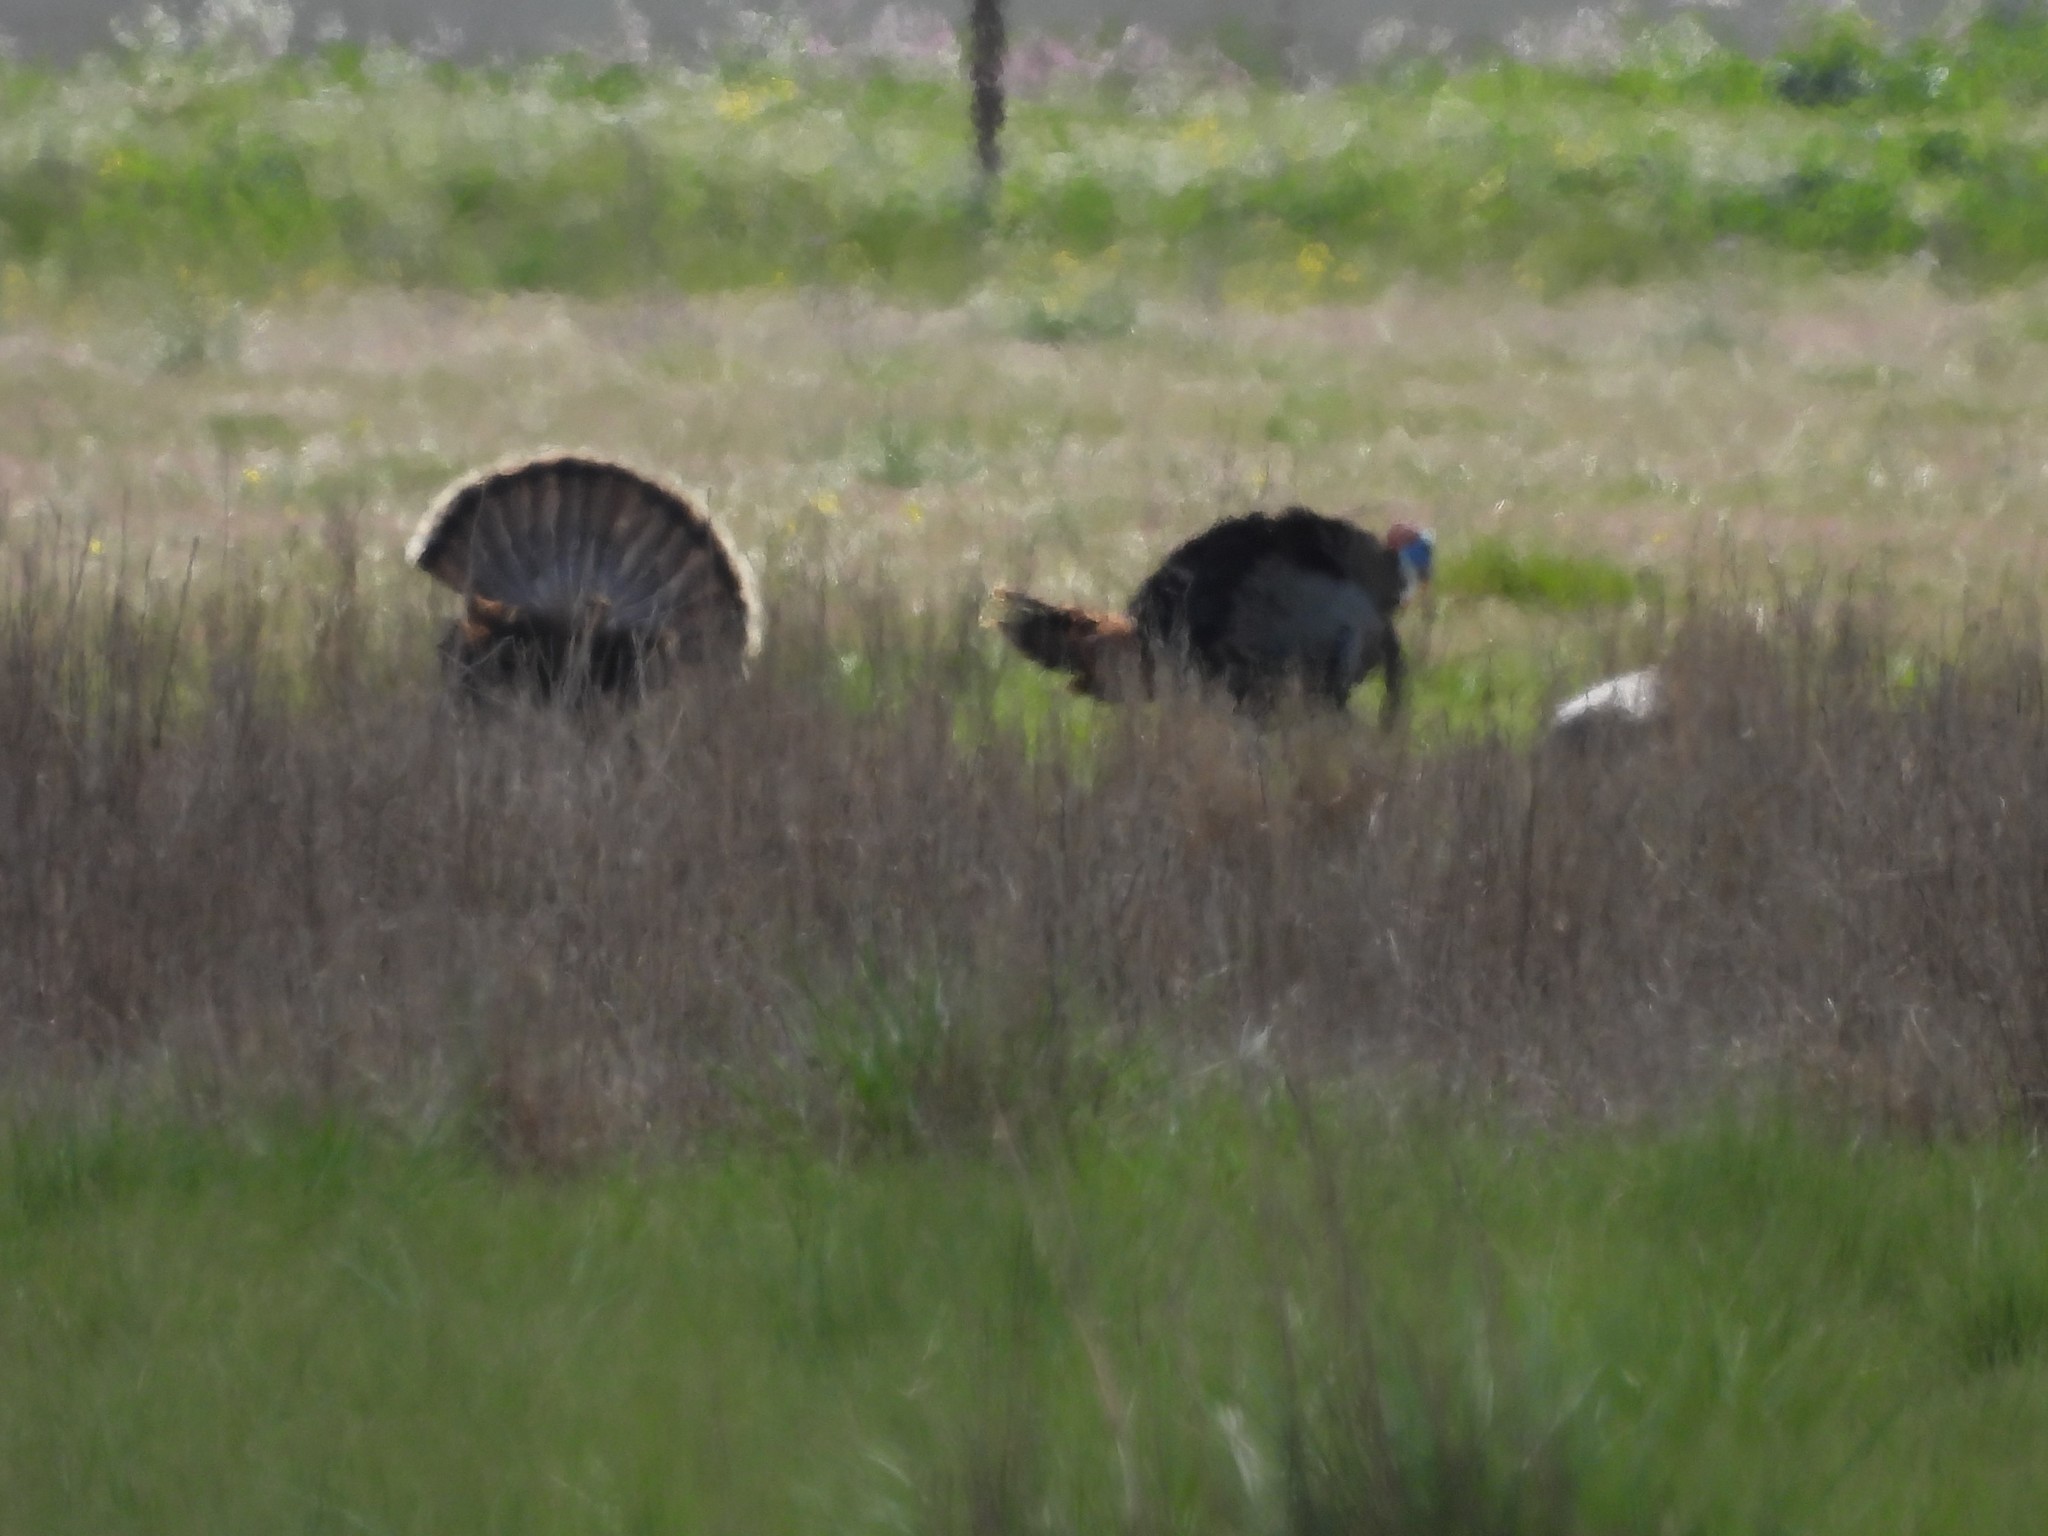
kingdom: Animalia
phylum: Chordata
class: Aves
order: Galliformes
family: Phasianidae
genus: Meleagris
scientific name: Meleagris gallopavo
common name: Wild turkey
